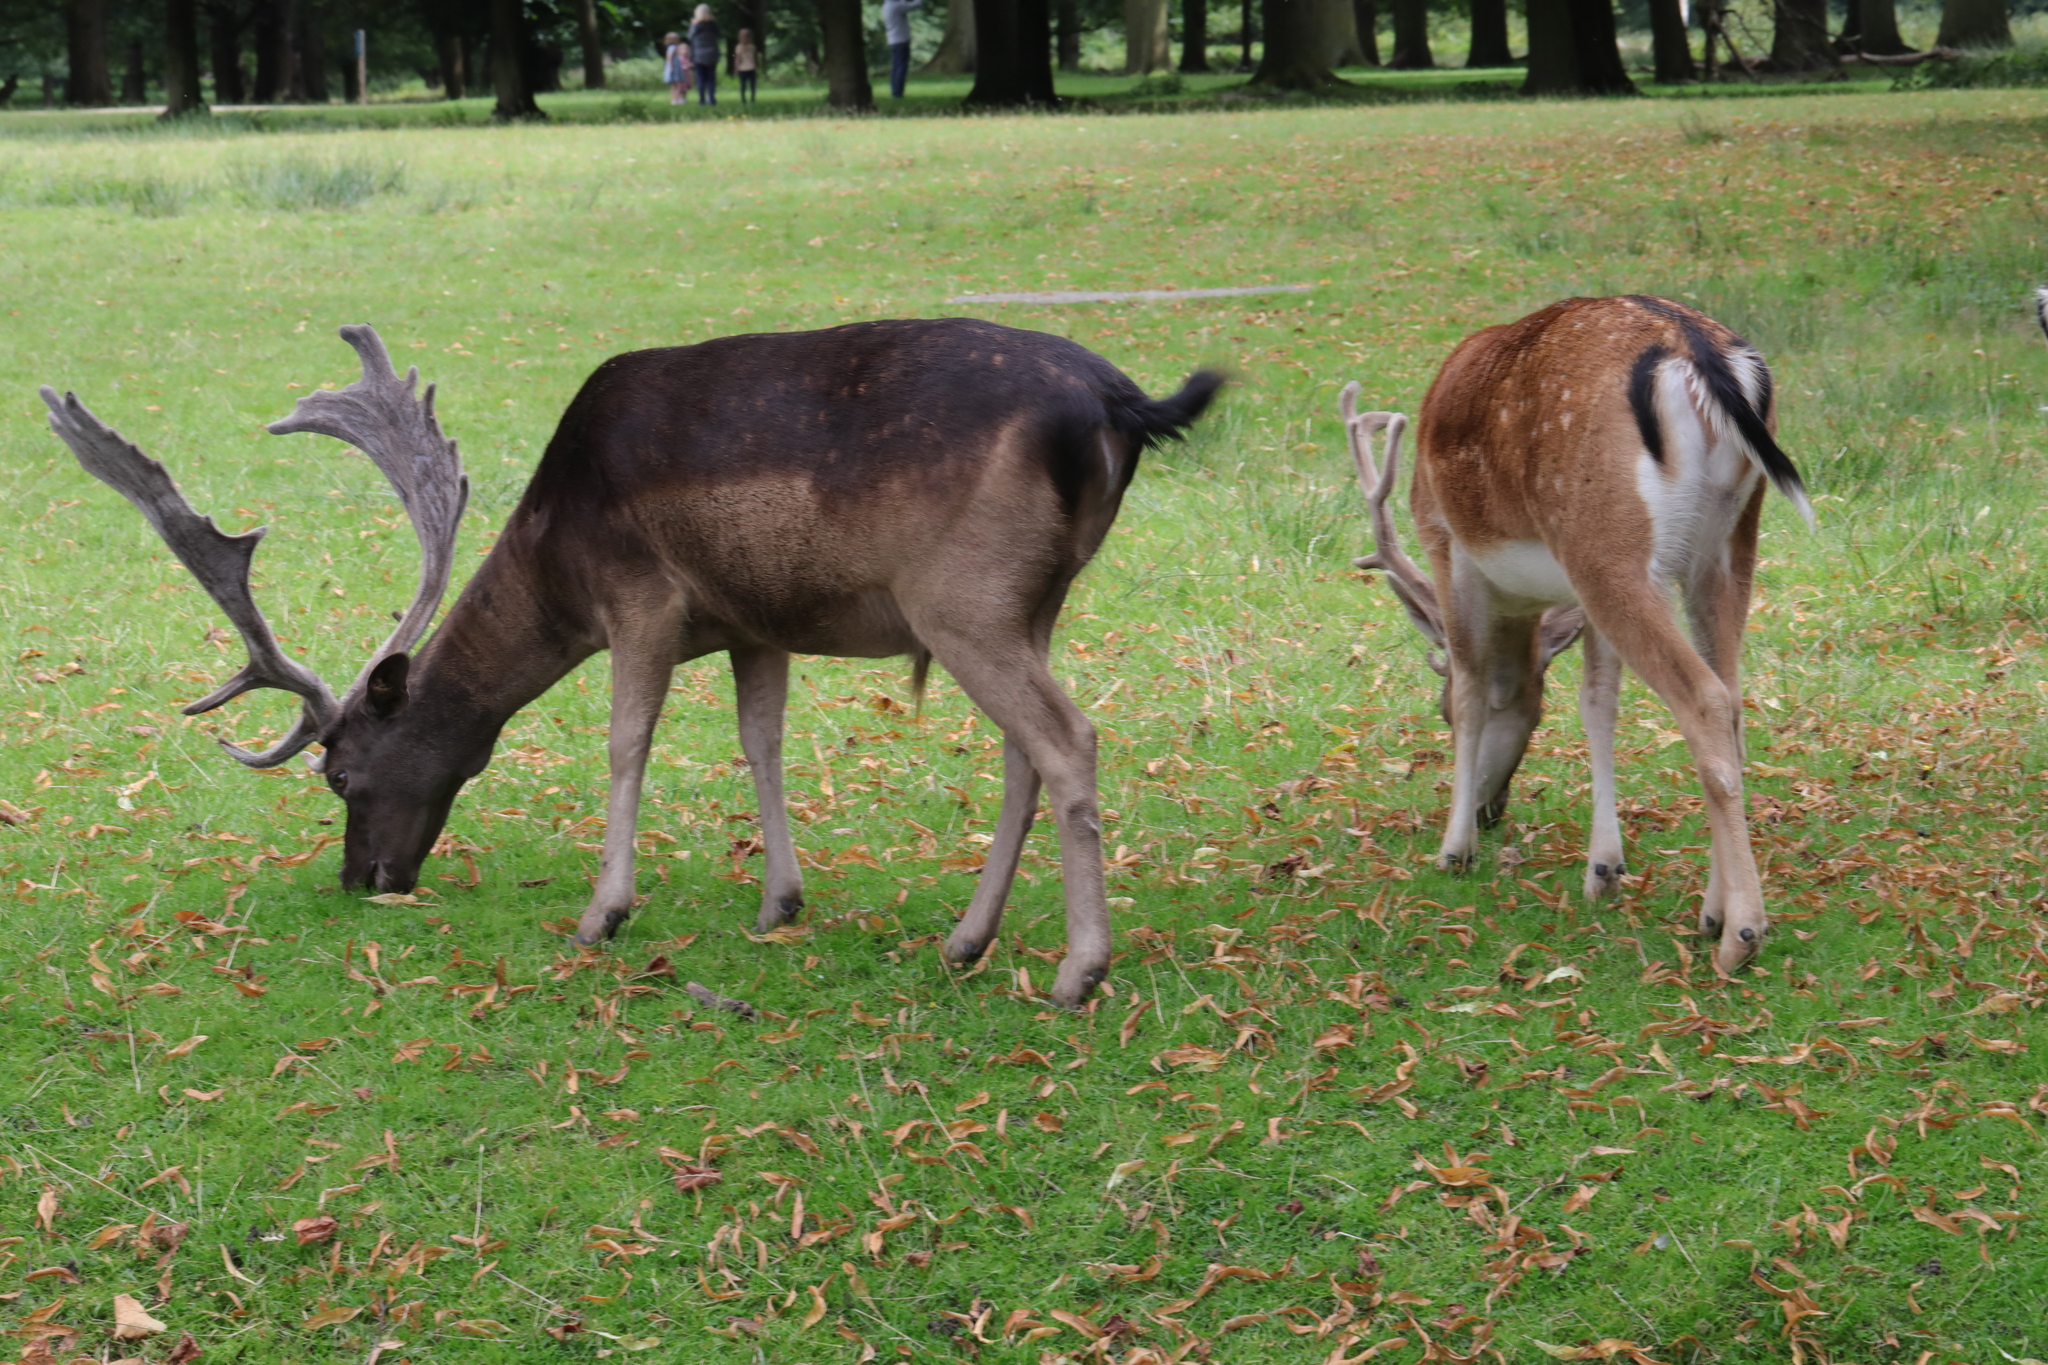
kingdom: Animalia
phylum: Chordata
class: Mammalia
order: Artiodactyla
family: Cervidae
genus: Dama
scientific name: Dama dama
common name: Fallow deer
